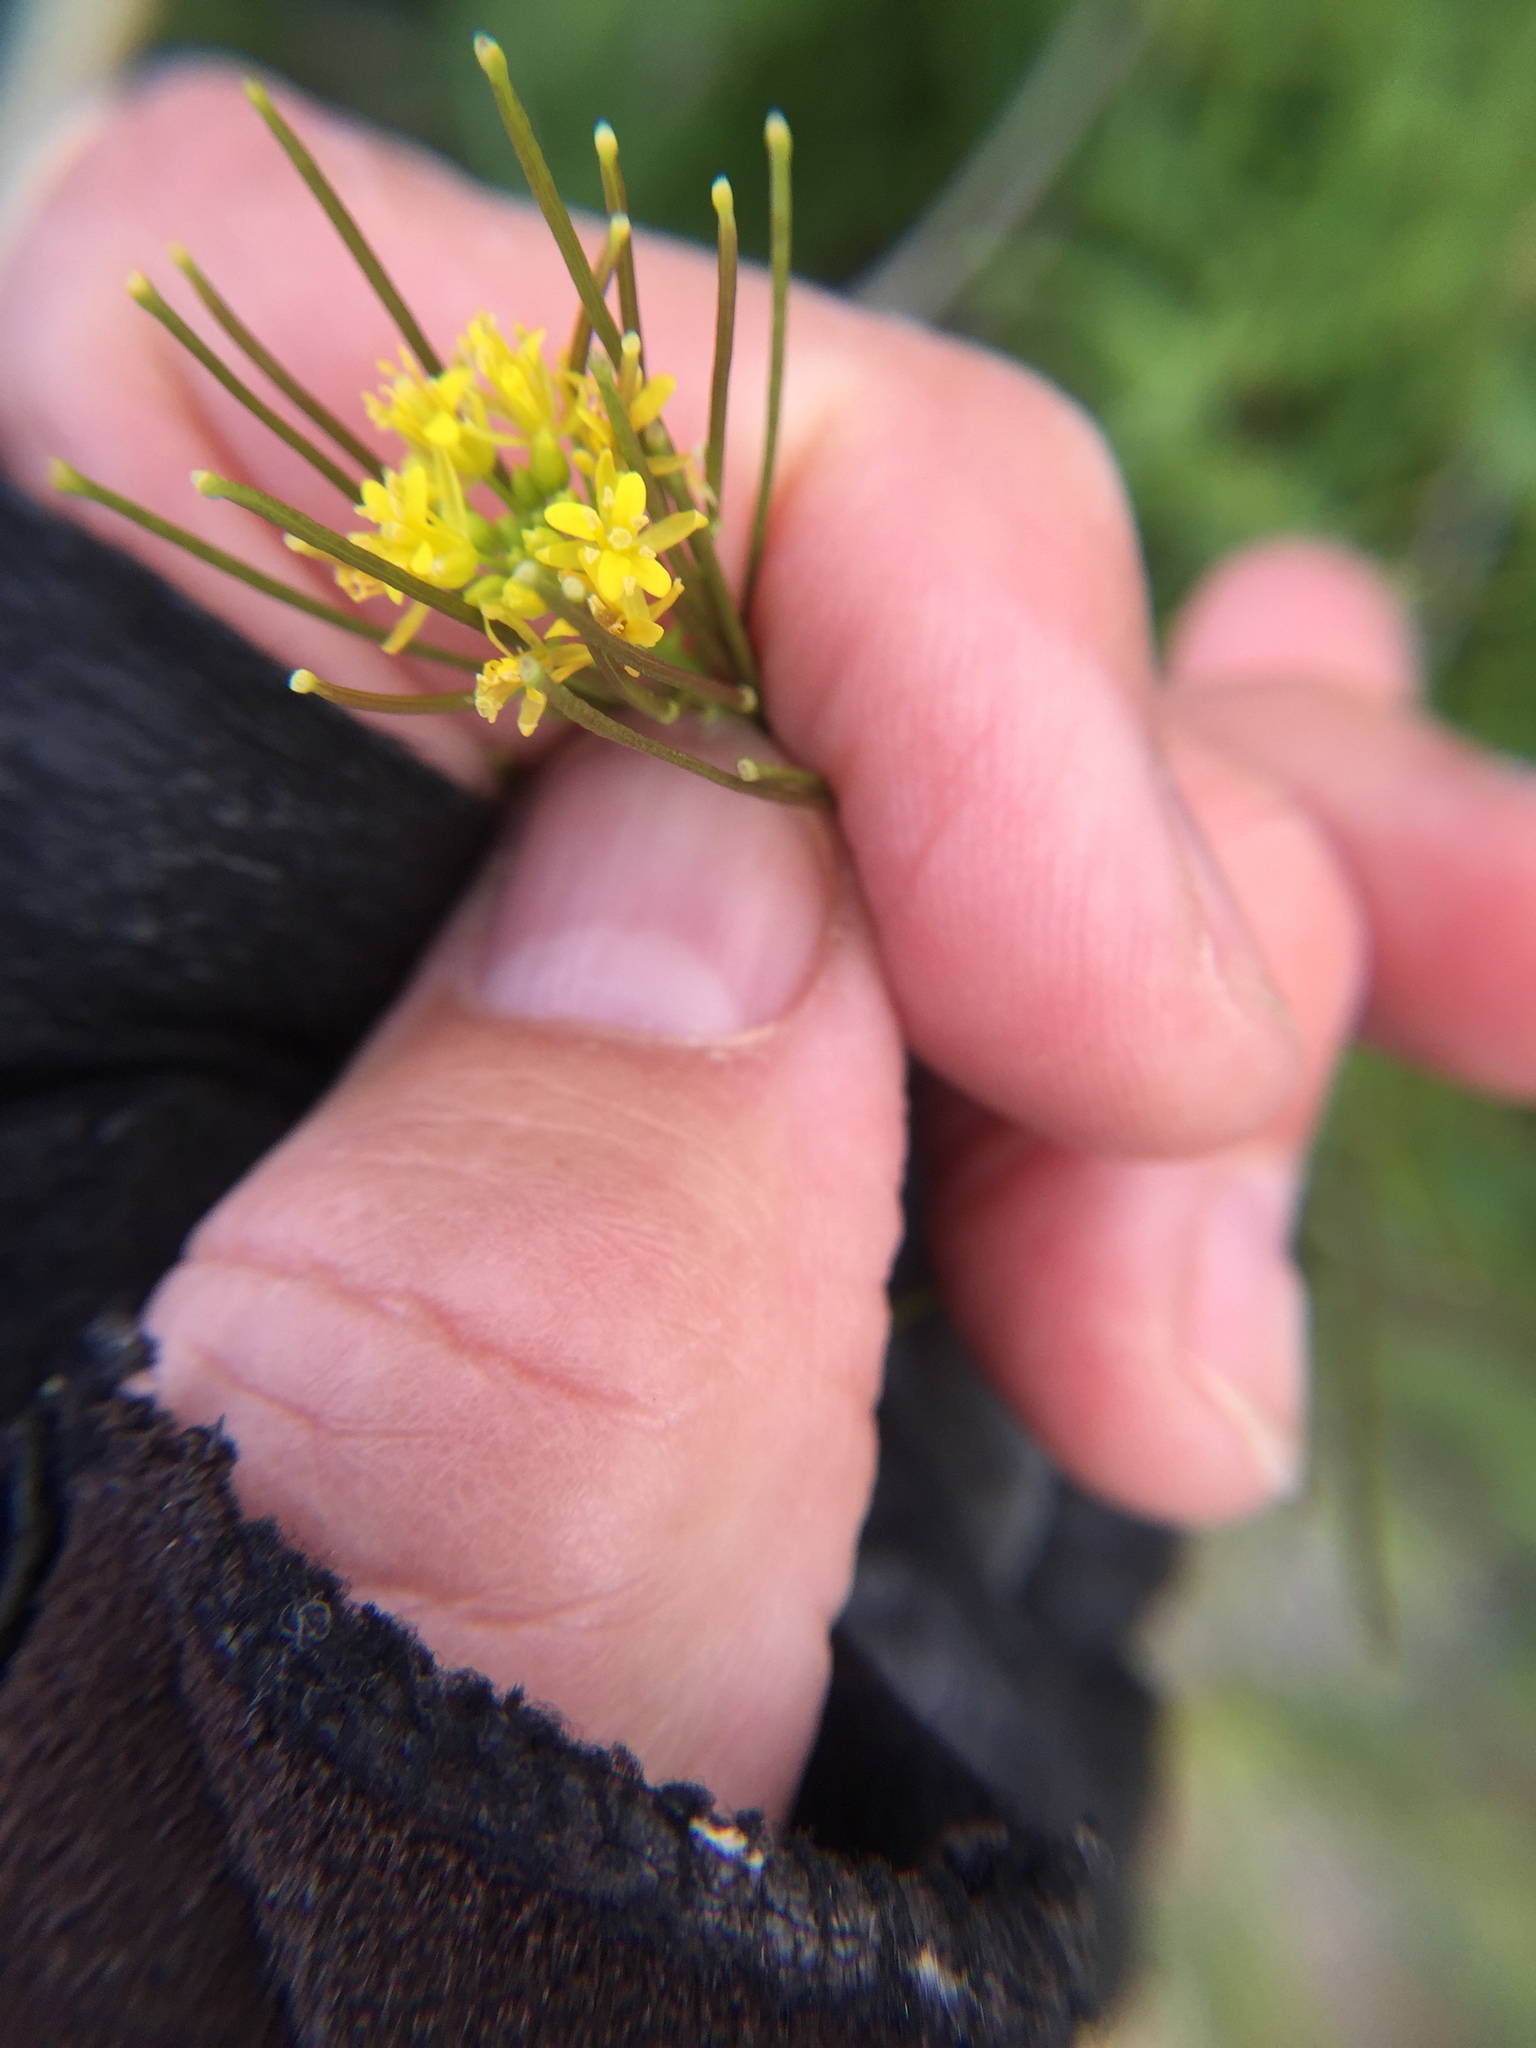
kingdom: Plantae
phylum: Tracheophyta
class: Magnoliopsida
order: Brassicales
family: Brassicaceae
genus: Sisymbrium
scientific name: Sisymbrium irio
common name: London rocket
